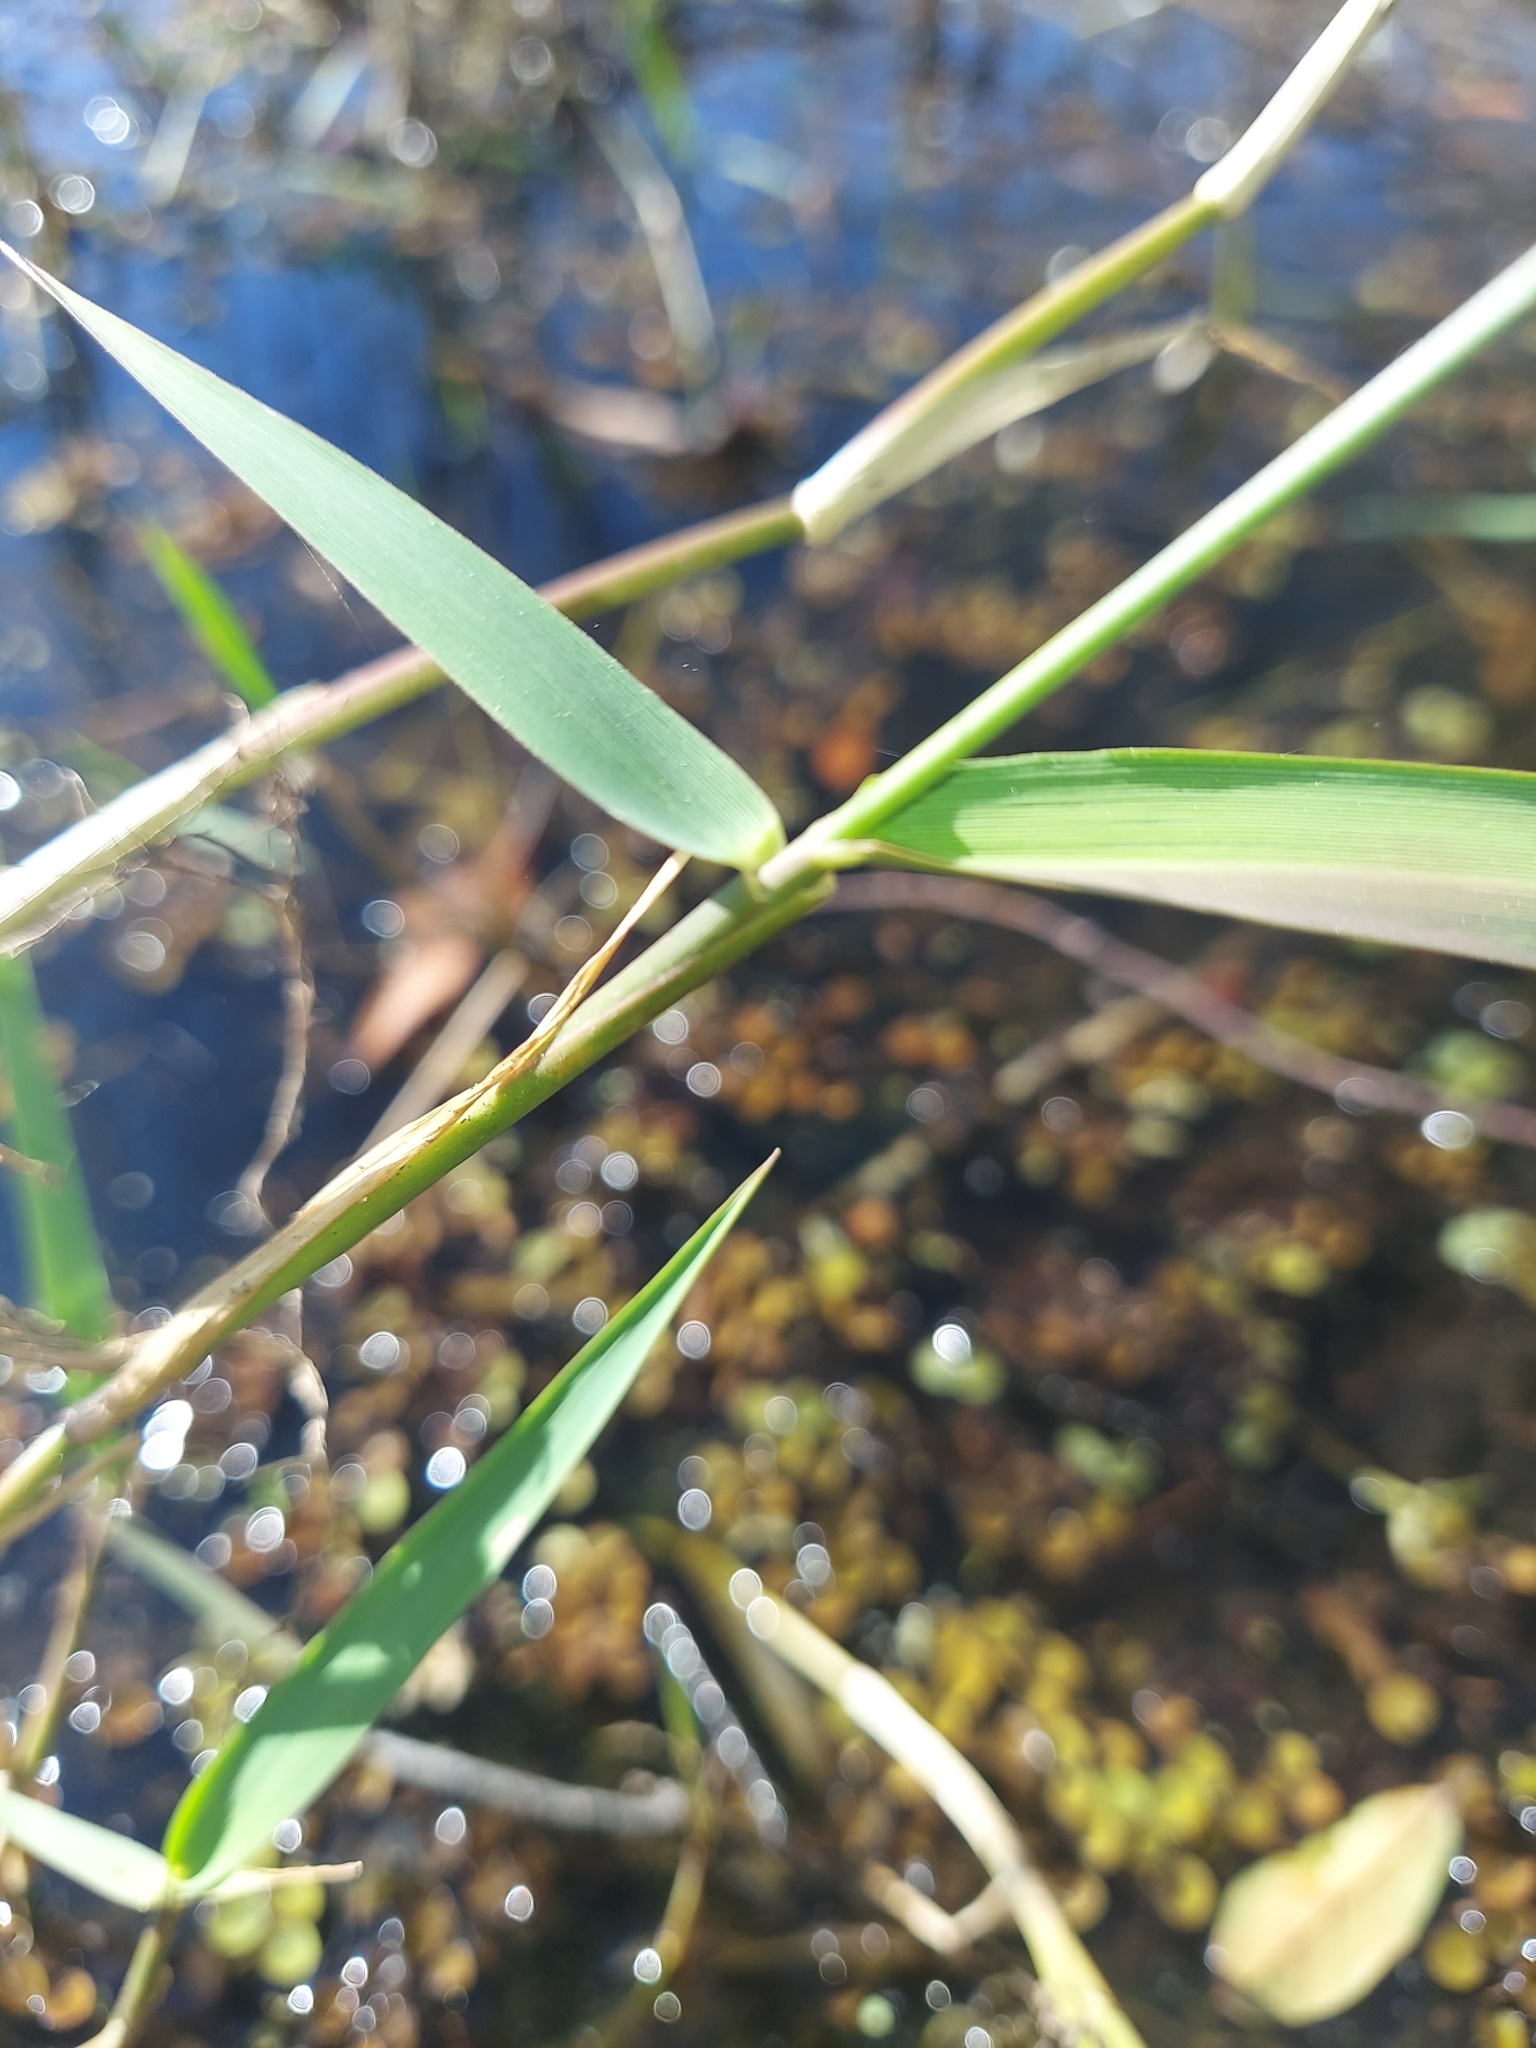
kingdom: Plantae
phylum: Tracheophyta
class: Liliopsida
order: Poales
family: Poaceae
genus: Panicum
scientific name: Panicum hemitomon
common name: Maidencane
